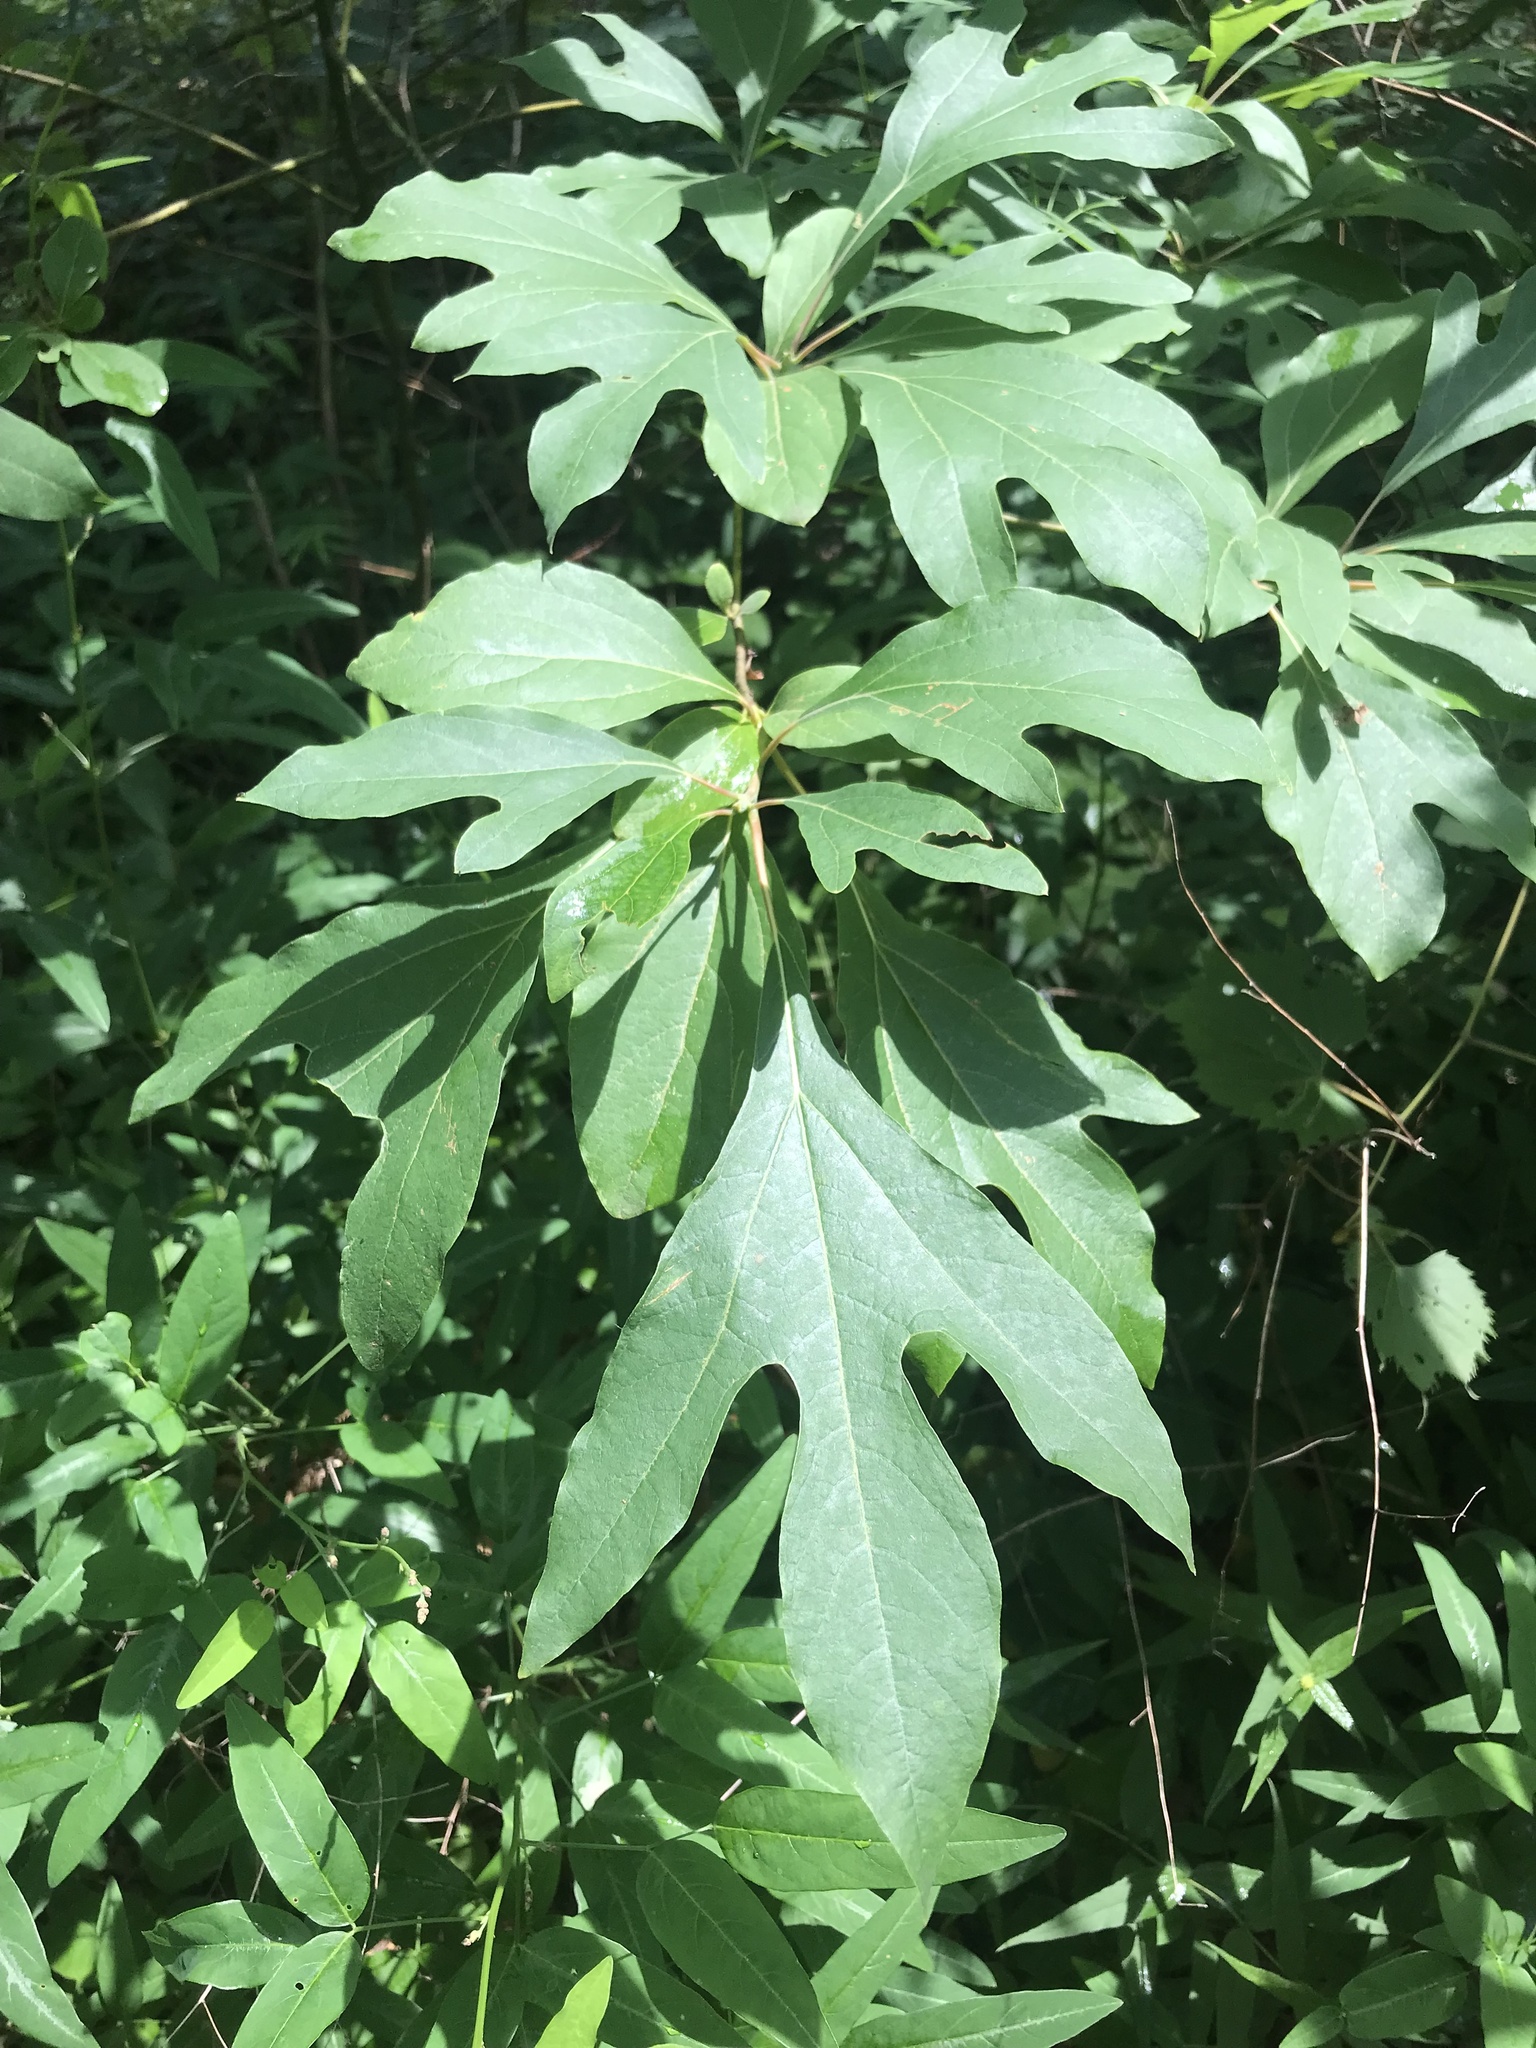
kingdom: Plantae
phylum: Tracheophyta
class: Magnoliopsida
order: Laurales
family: Lauraceae
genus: Sassafras
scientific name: Sassafras albidum
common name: Sassafras
